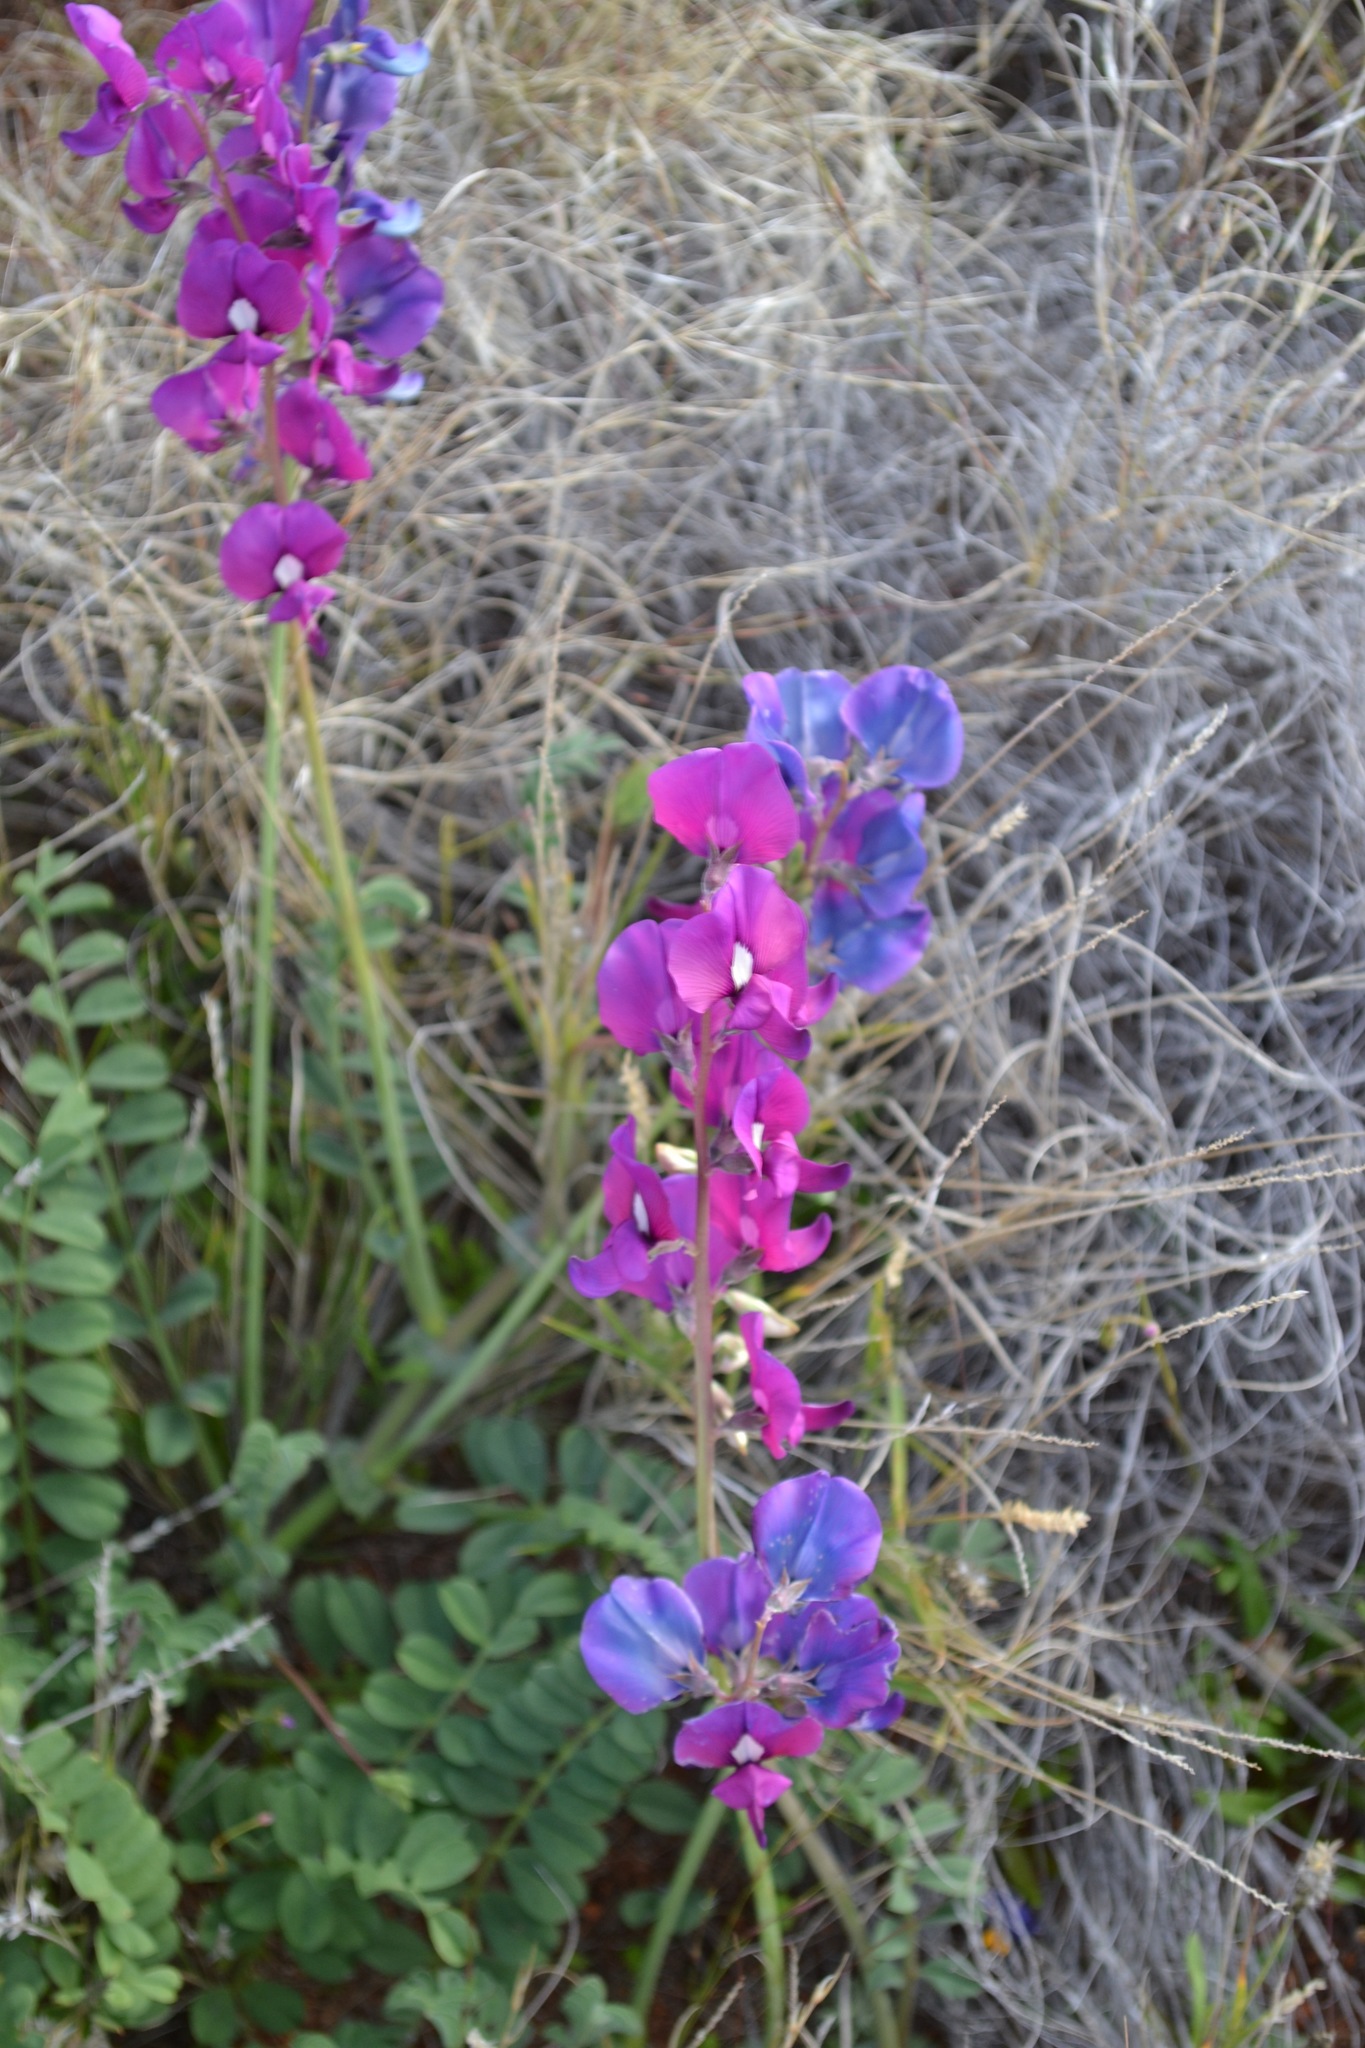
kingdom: Plantae
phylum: Tracheophyta
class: Magnoliopsida
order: Fabales
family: Fabaceae
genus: Swainsona
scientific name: Swainsona beasleyana
